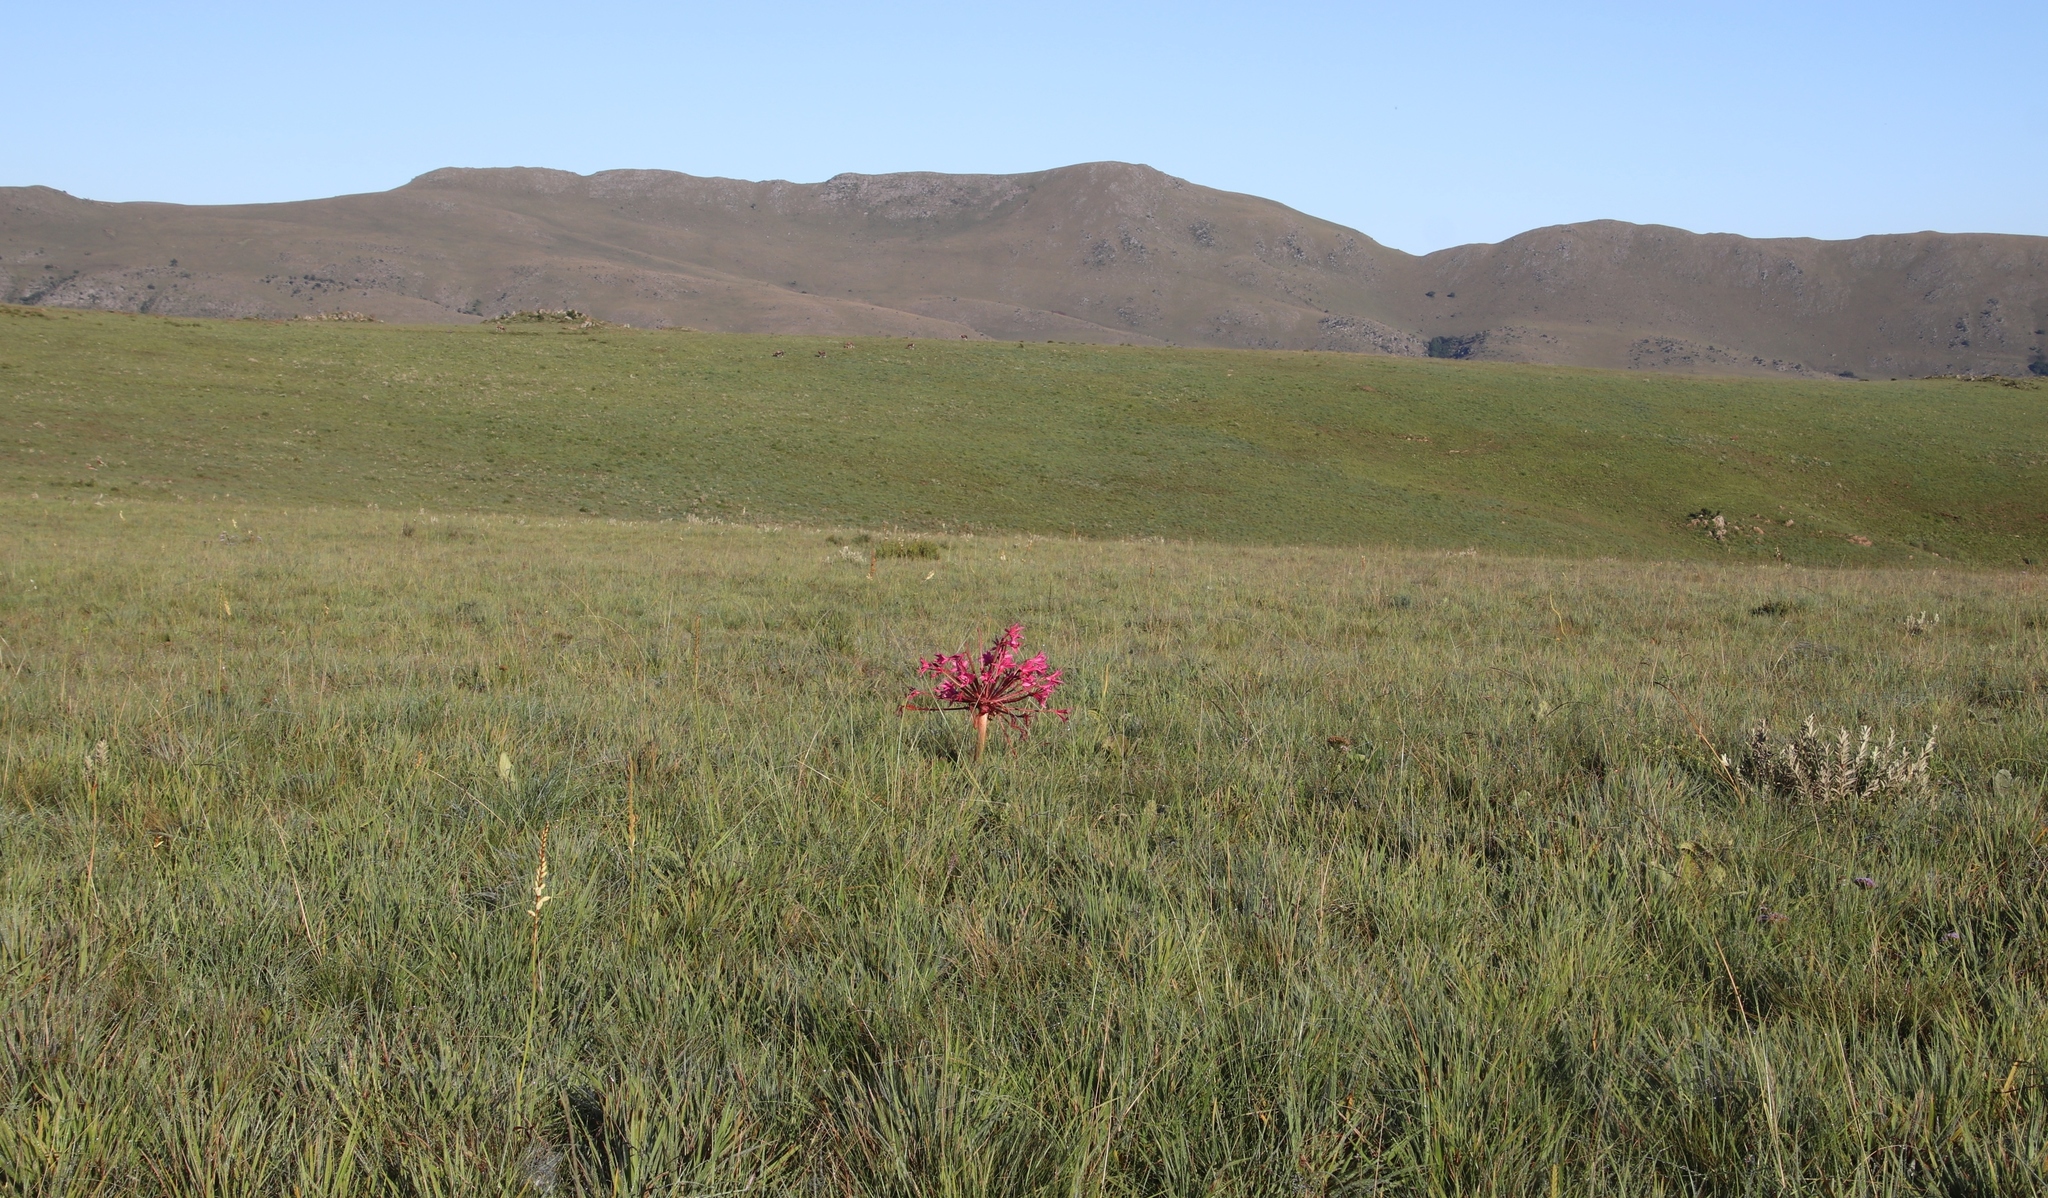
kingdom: Plantae
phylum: Tracheophyta
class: Liliopsida
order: Asparagales
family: Amaryllidaceae
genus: Brunsvigia
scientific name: Brunsvigia radulosa
